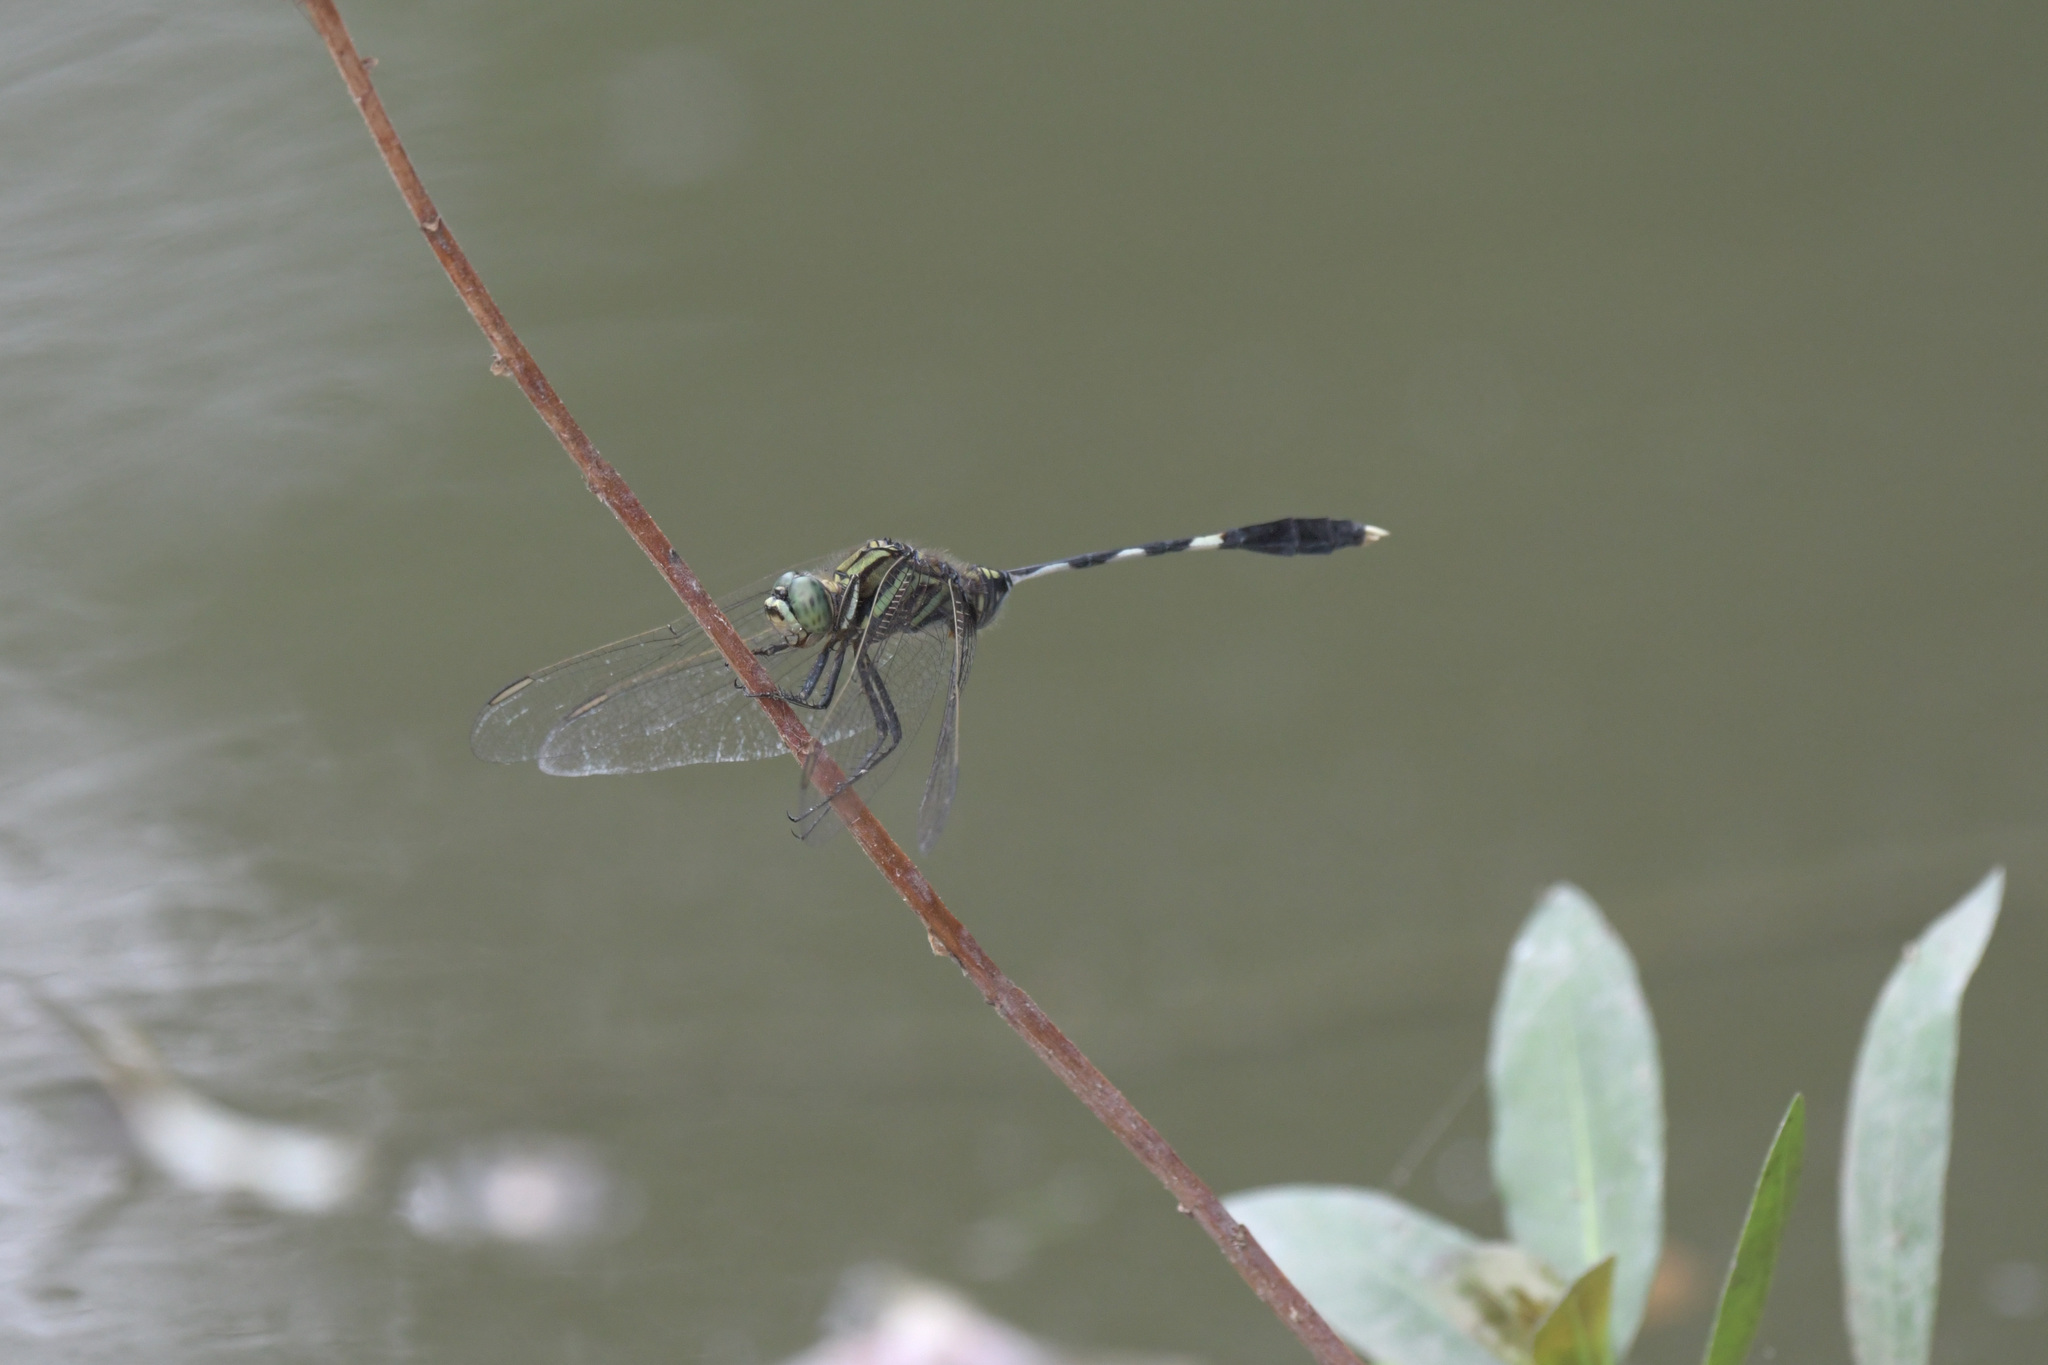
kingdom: Animalia
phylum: Arthropoda
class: Insecta
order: Odonata
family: Libellulidae
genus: Orthetrum
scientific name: Orthetrum sabina
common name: Slender skimmer
